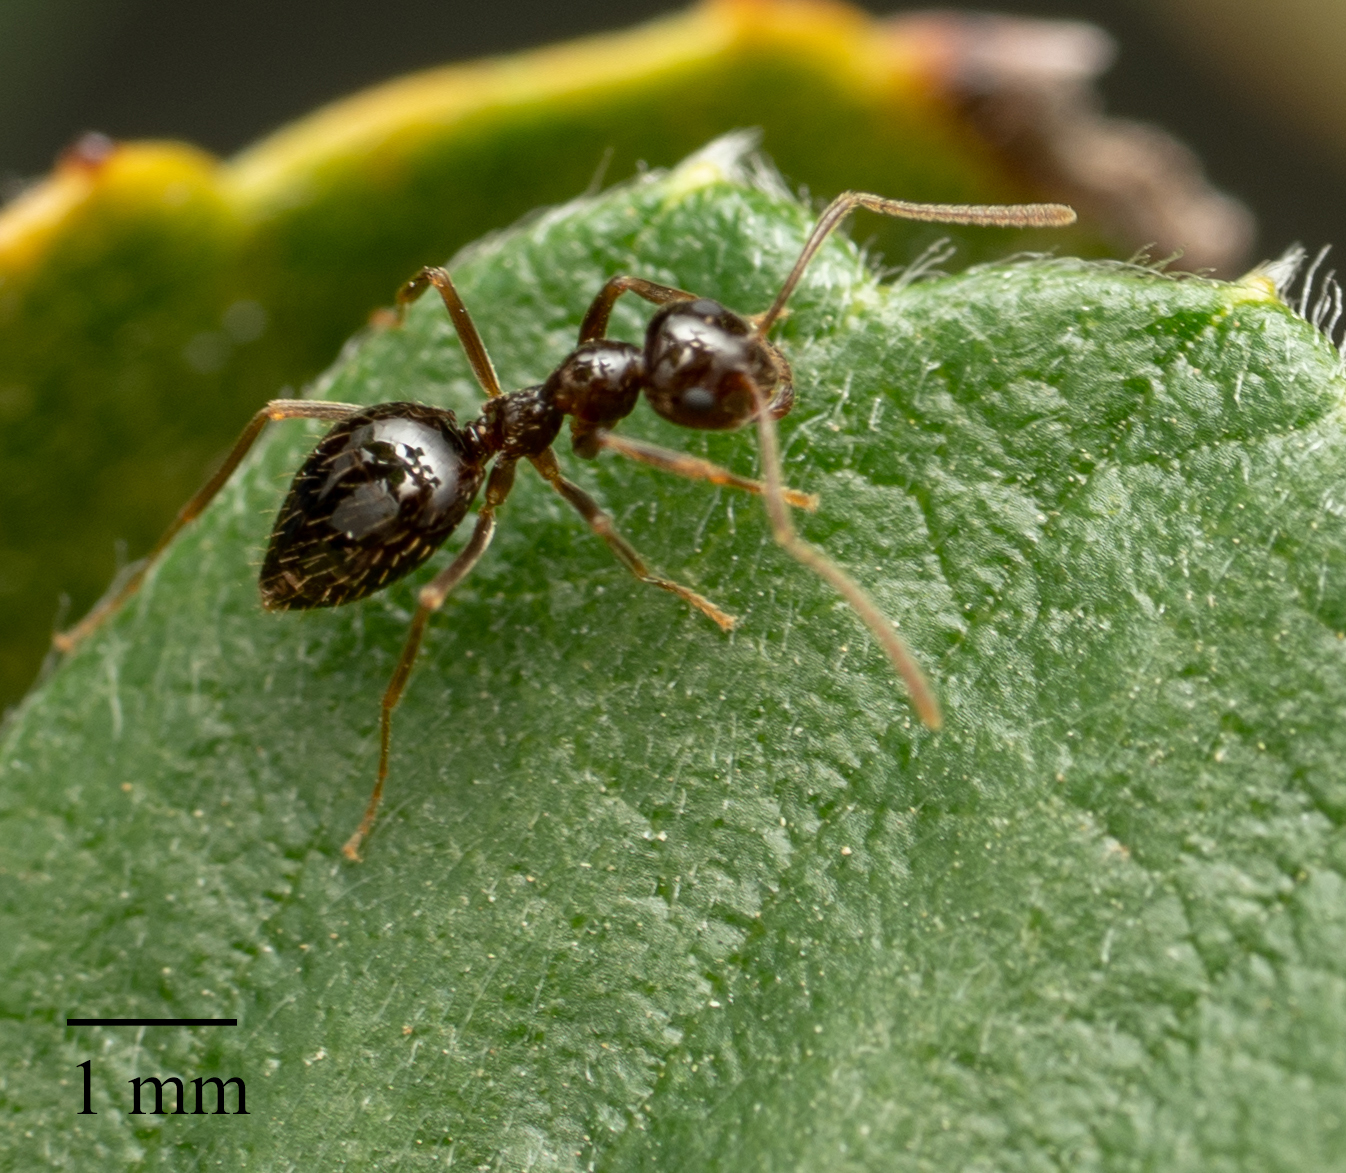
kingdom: Animalia
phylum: Arthropoda
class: Insecta
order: Hymenoptera
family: Formicidae
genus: Prenolepis
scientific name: Prenolepis imparis
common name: Small honey ant
